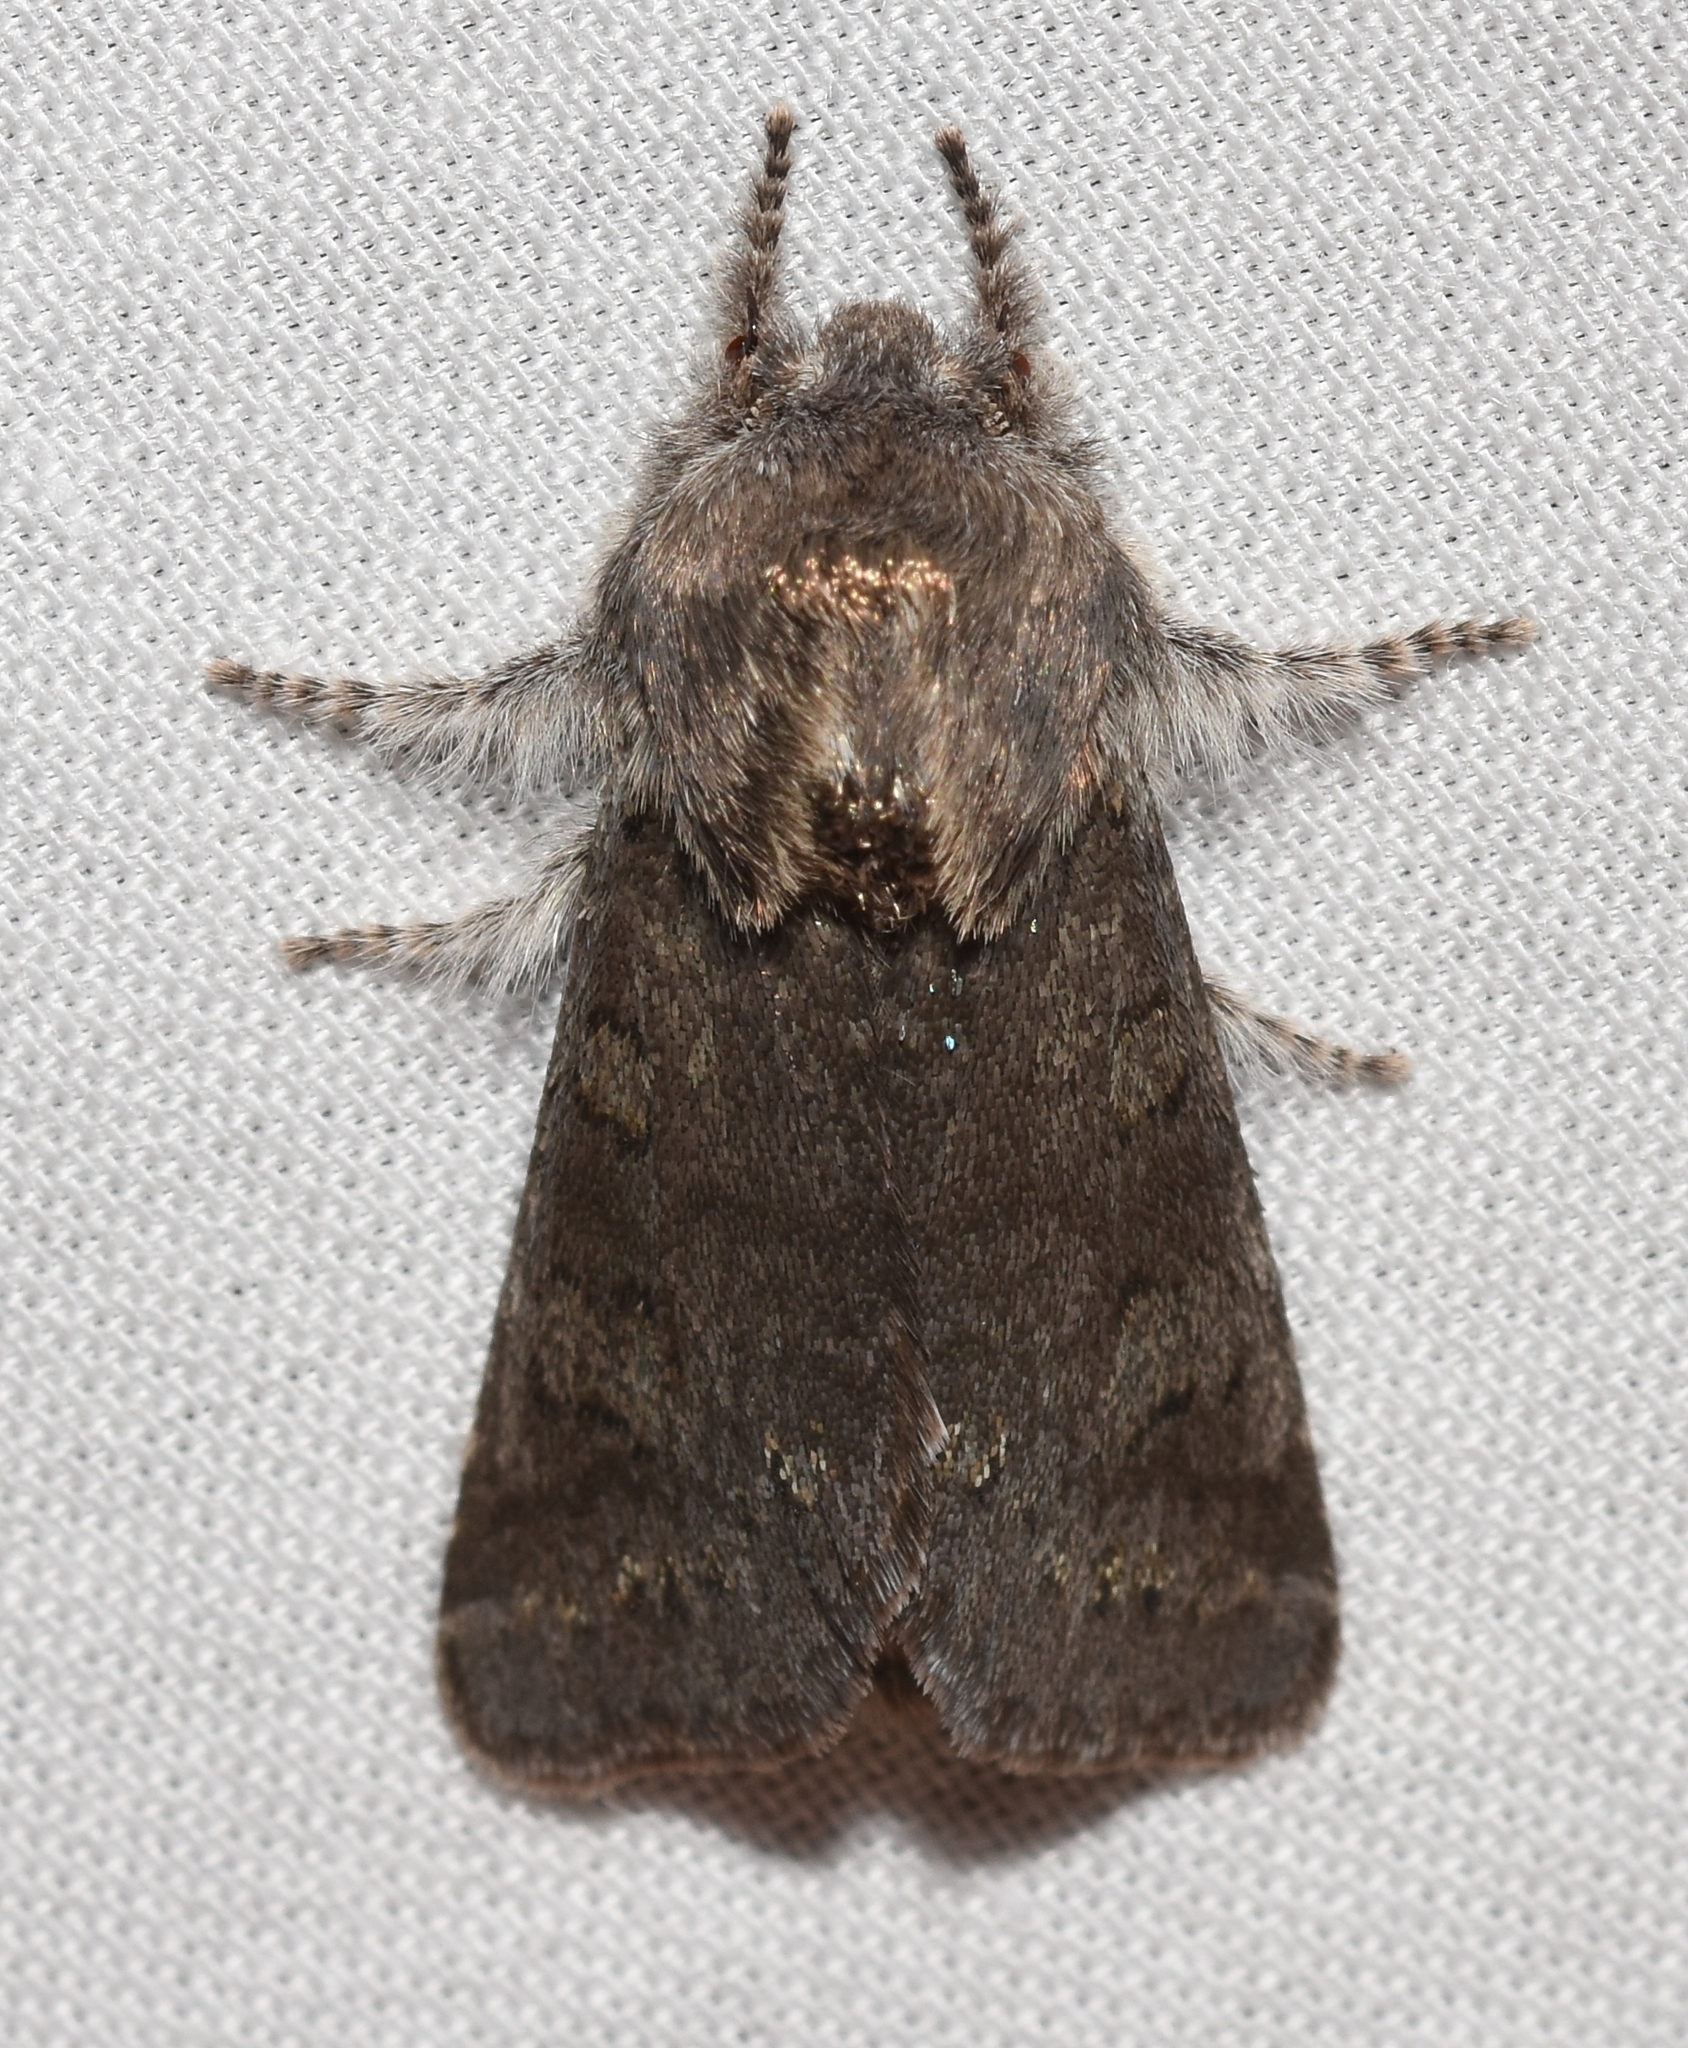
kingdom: Animalia
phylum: Arthropoda
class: Insecta
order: Lepidoptera
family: Noctuidae
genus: Psaphida
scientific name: Psaphida rolandi
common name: Roland's sallow
